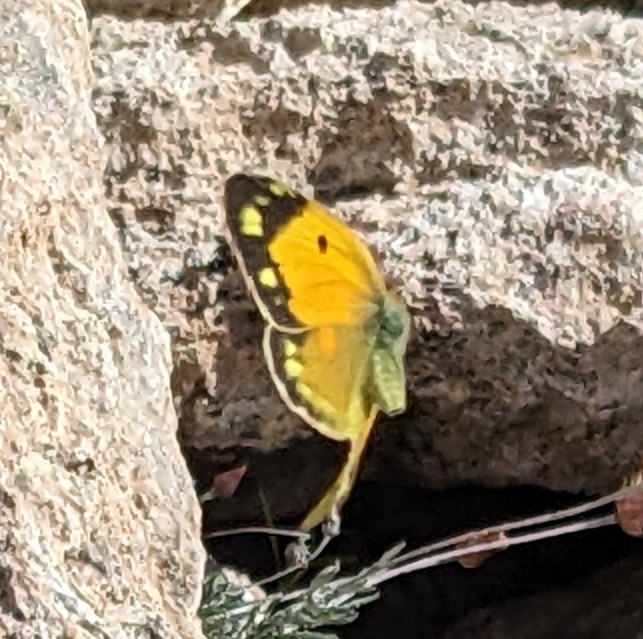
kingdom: Animalia
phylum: Arthropoda
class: Insecta
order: Lepidoptera
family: Pieridae
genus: Colias
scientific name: Colias croceus
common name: Clouded yellow
